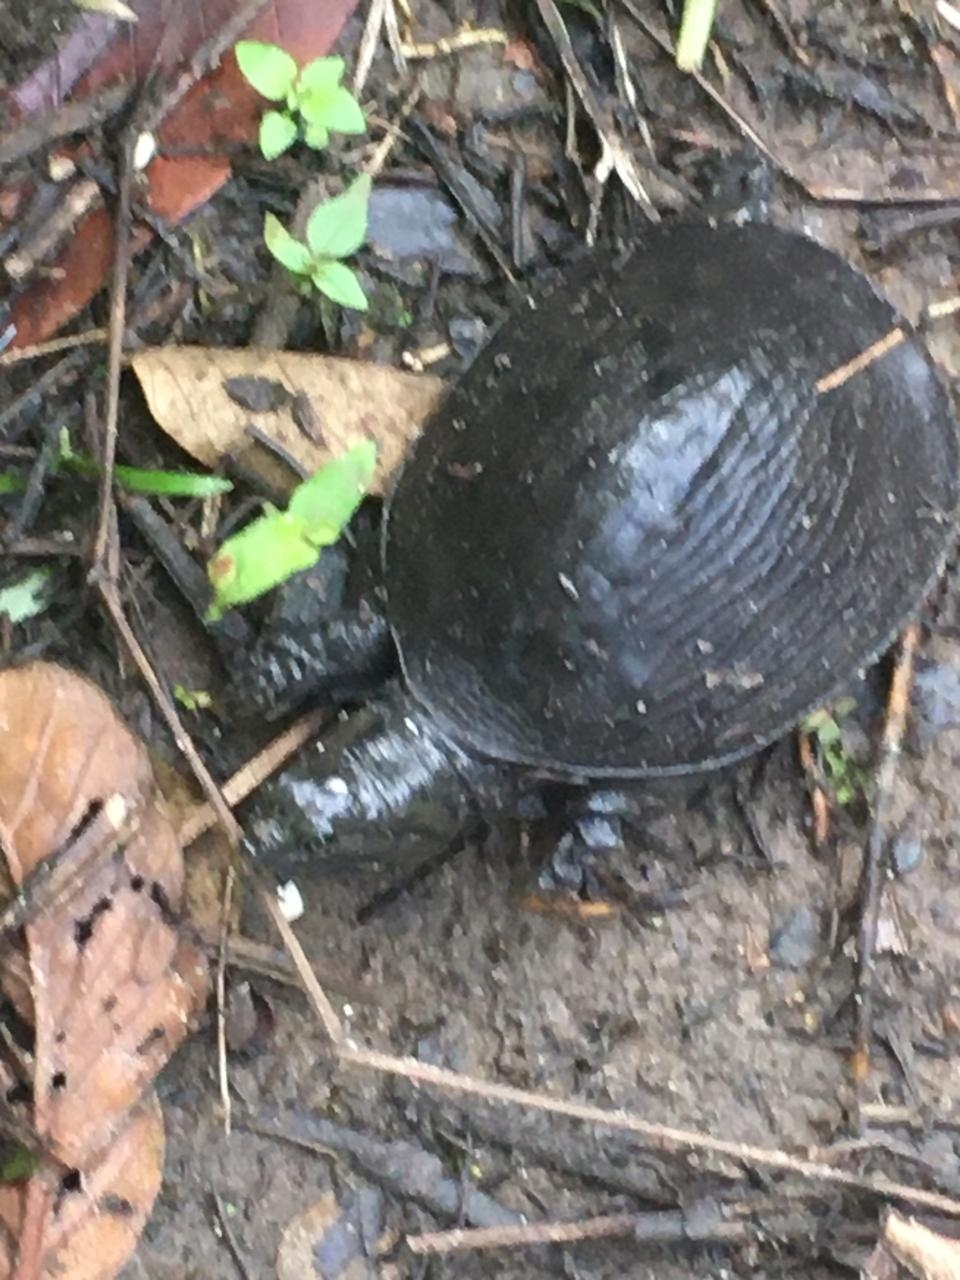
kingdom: Animalia
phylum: Chordata
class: Testudines
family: Trionychidae
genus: Lissemys
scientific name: Lissemys punctata
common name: Indian flap-shelled turtle
